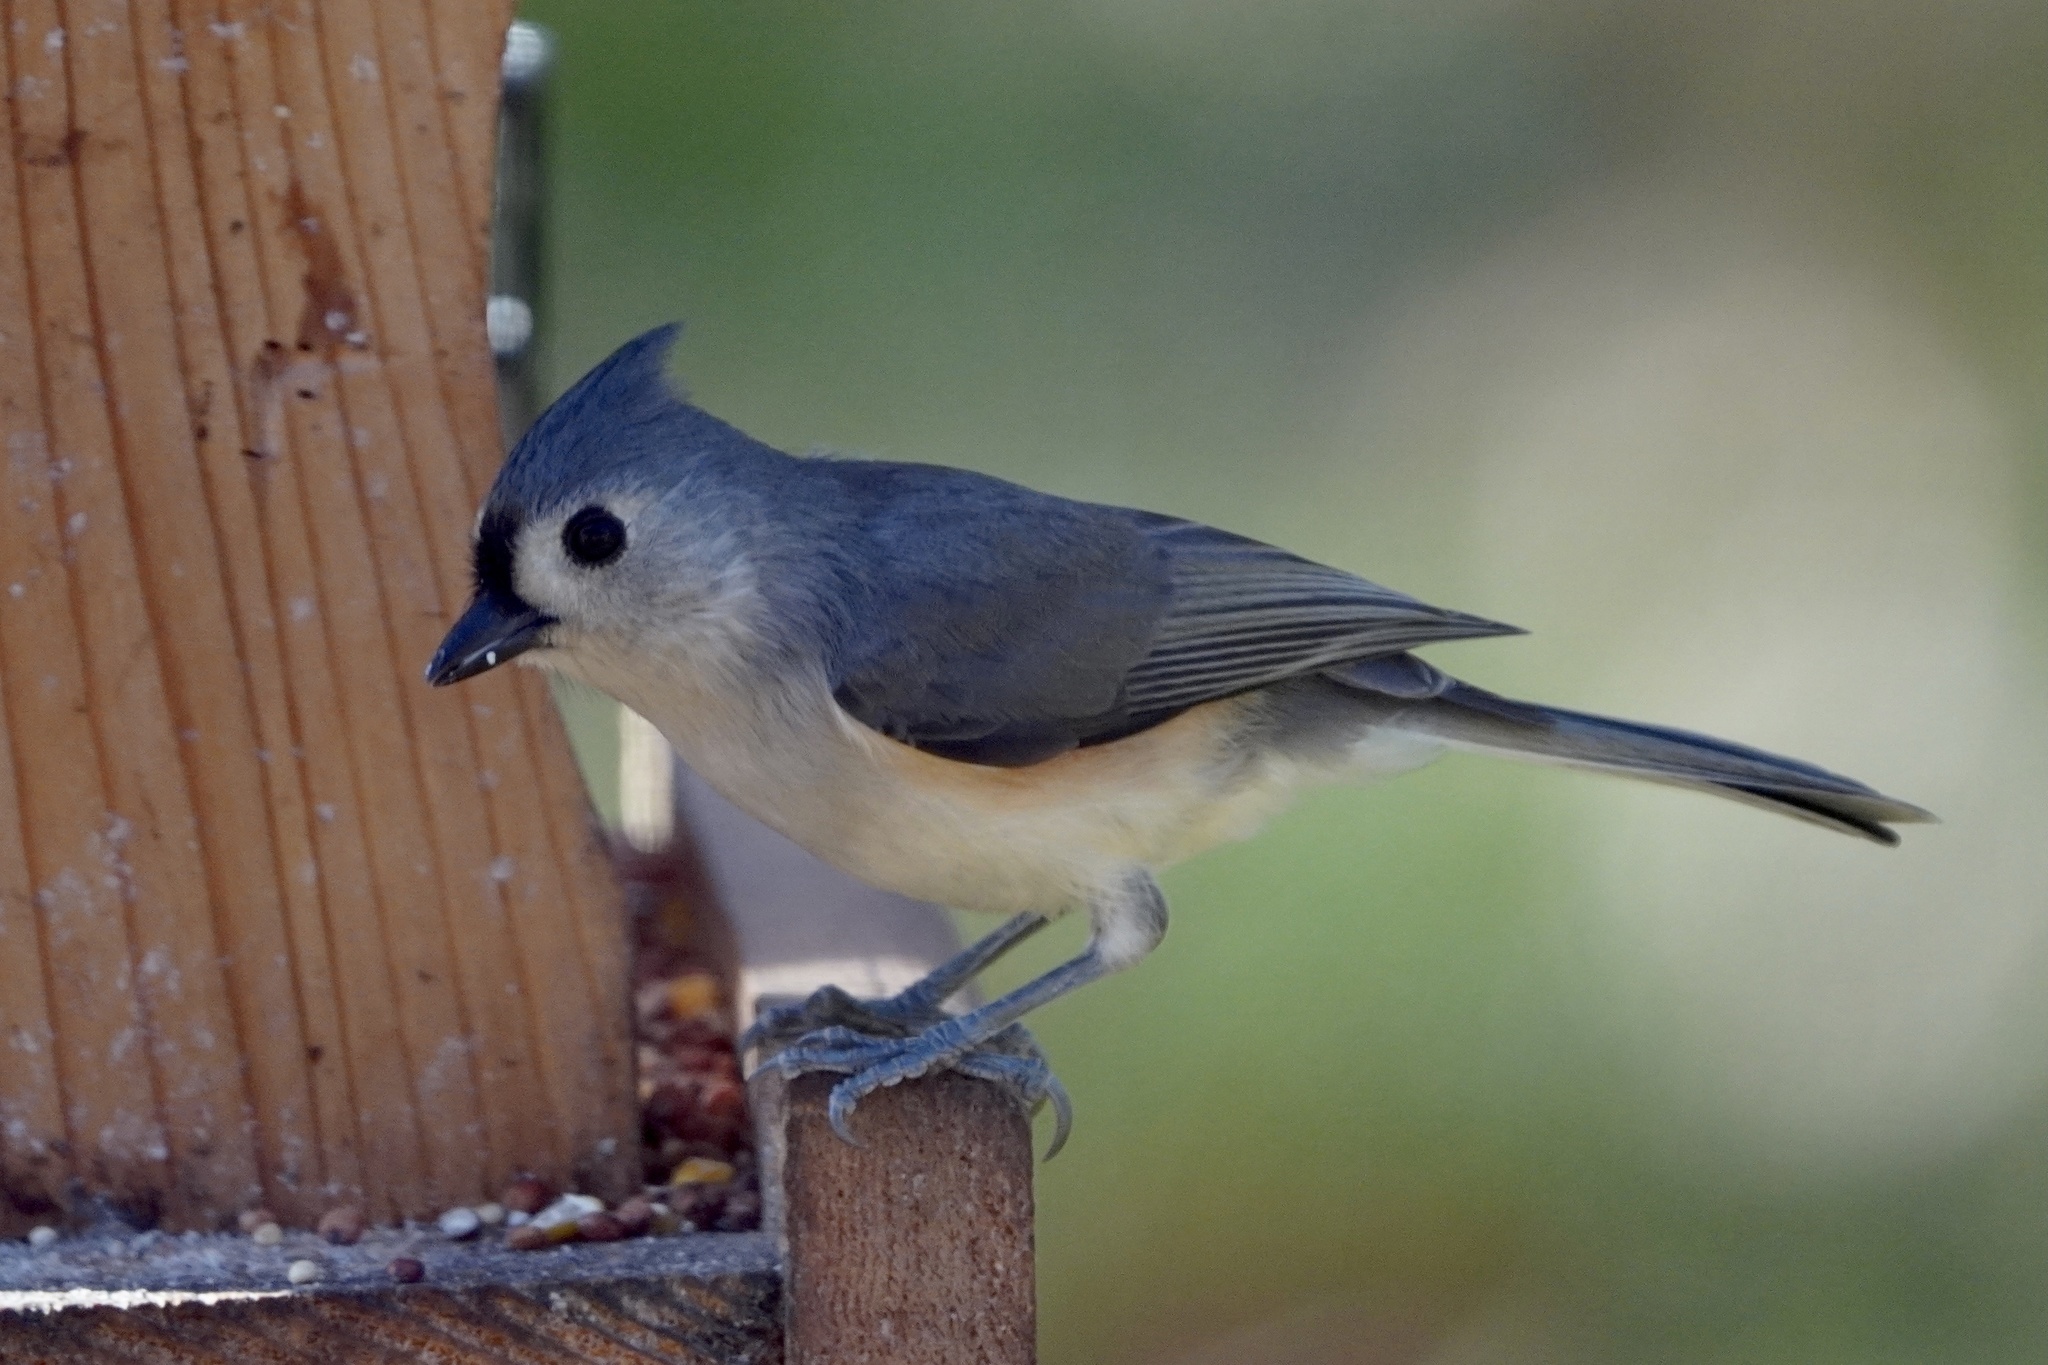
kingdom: Animalia
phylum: Chordata
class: Aves
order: Passeriformes
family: Paridae
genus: Baeolophus
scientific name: Baeolophus bicolor
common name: Tufted titmouse
